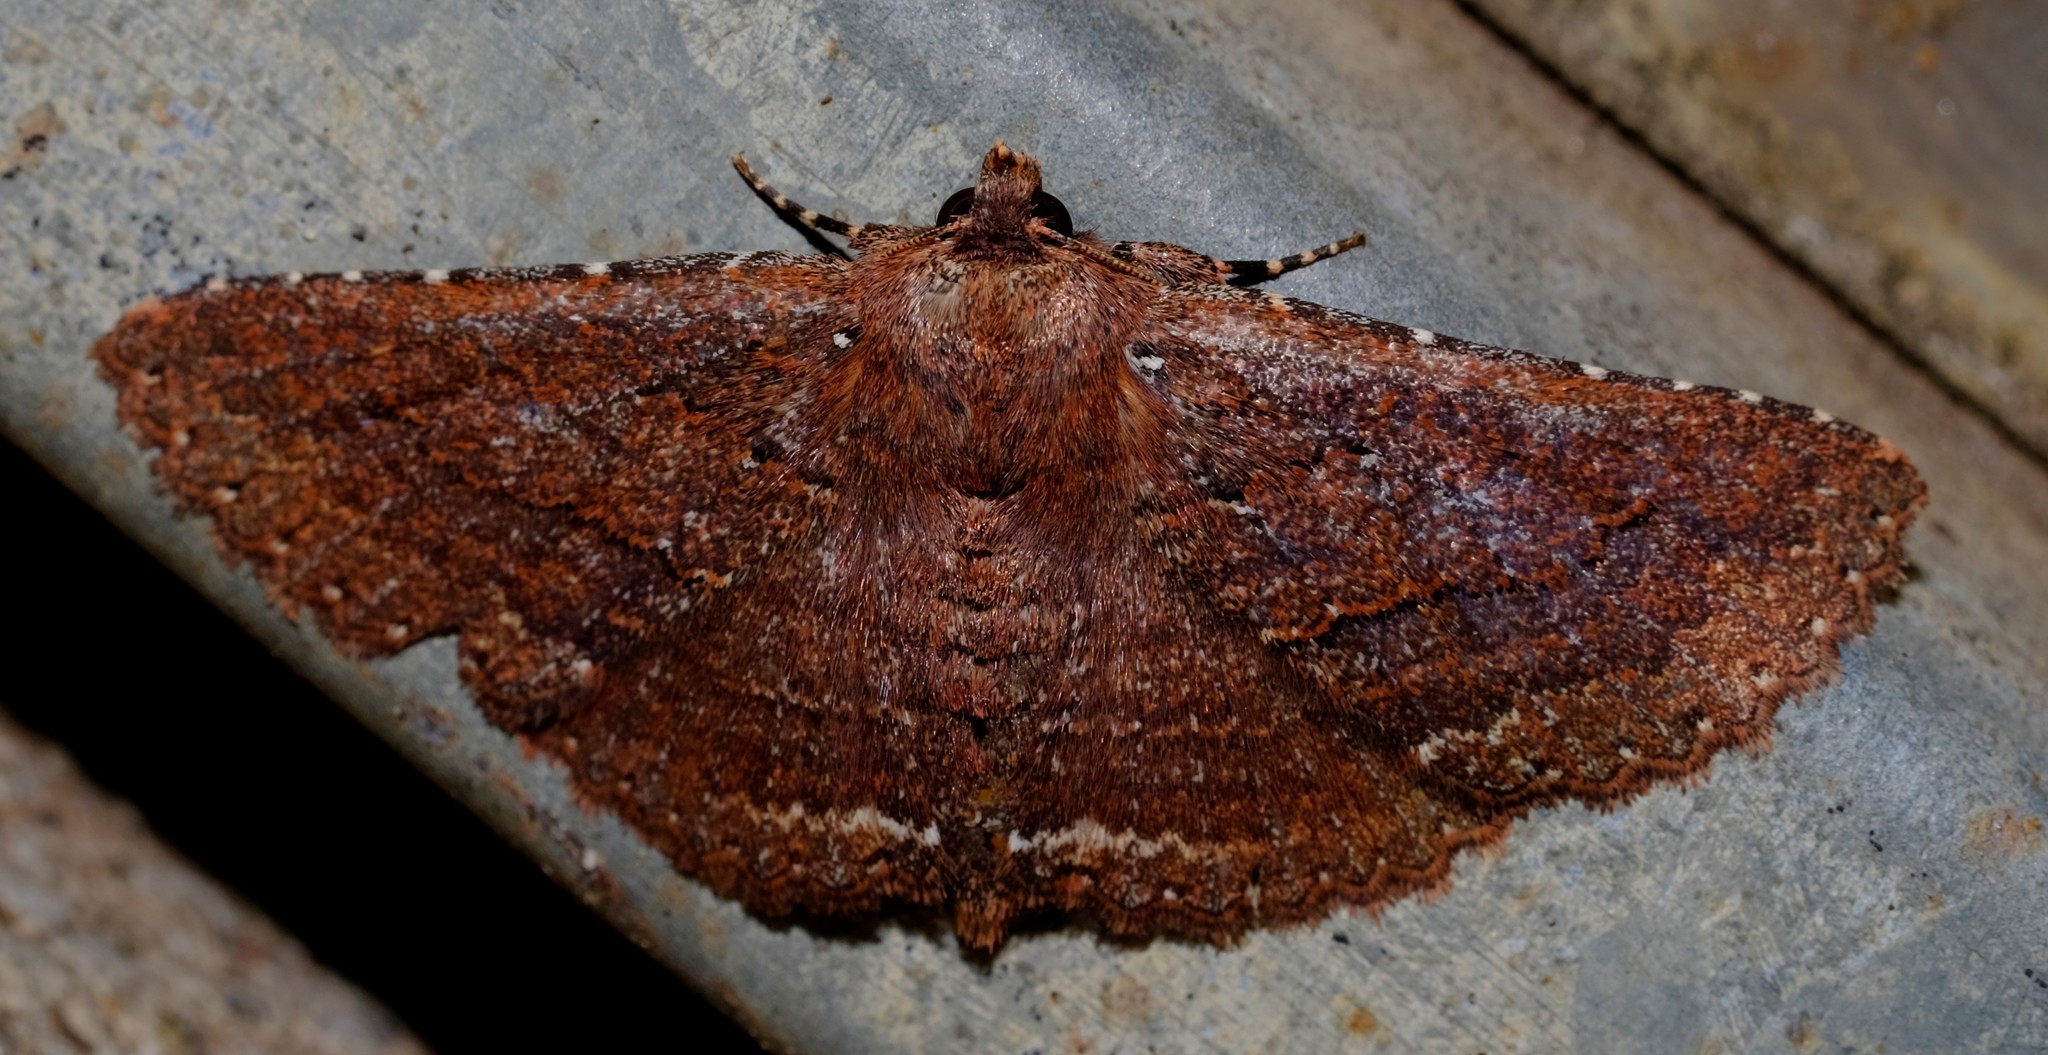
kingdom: Animalia
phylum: Arthropoda
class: Insecta
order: Lepidoptera
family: Erebidae
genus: Praxis
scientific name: Praxis porphyretica
